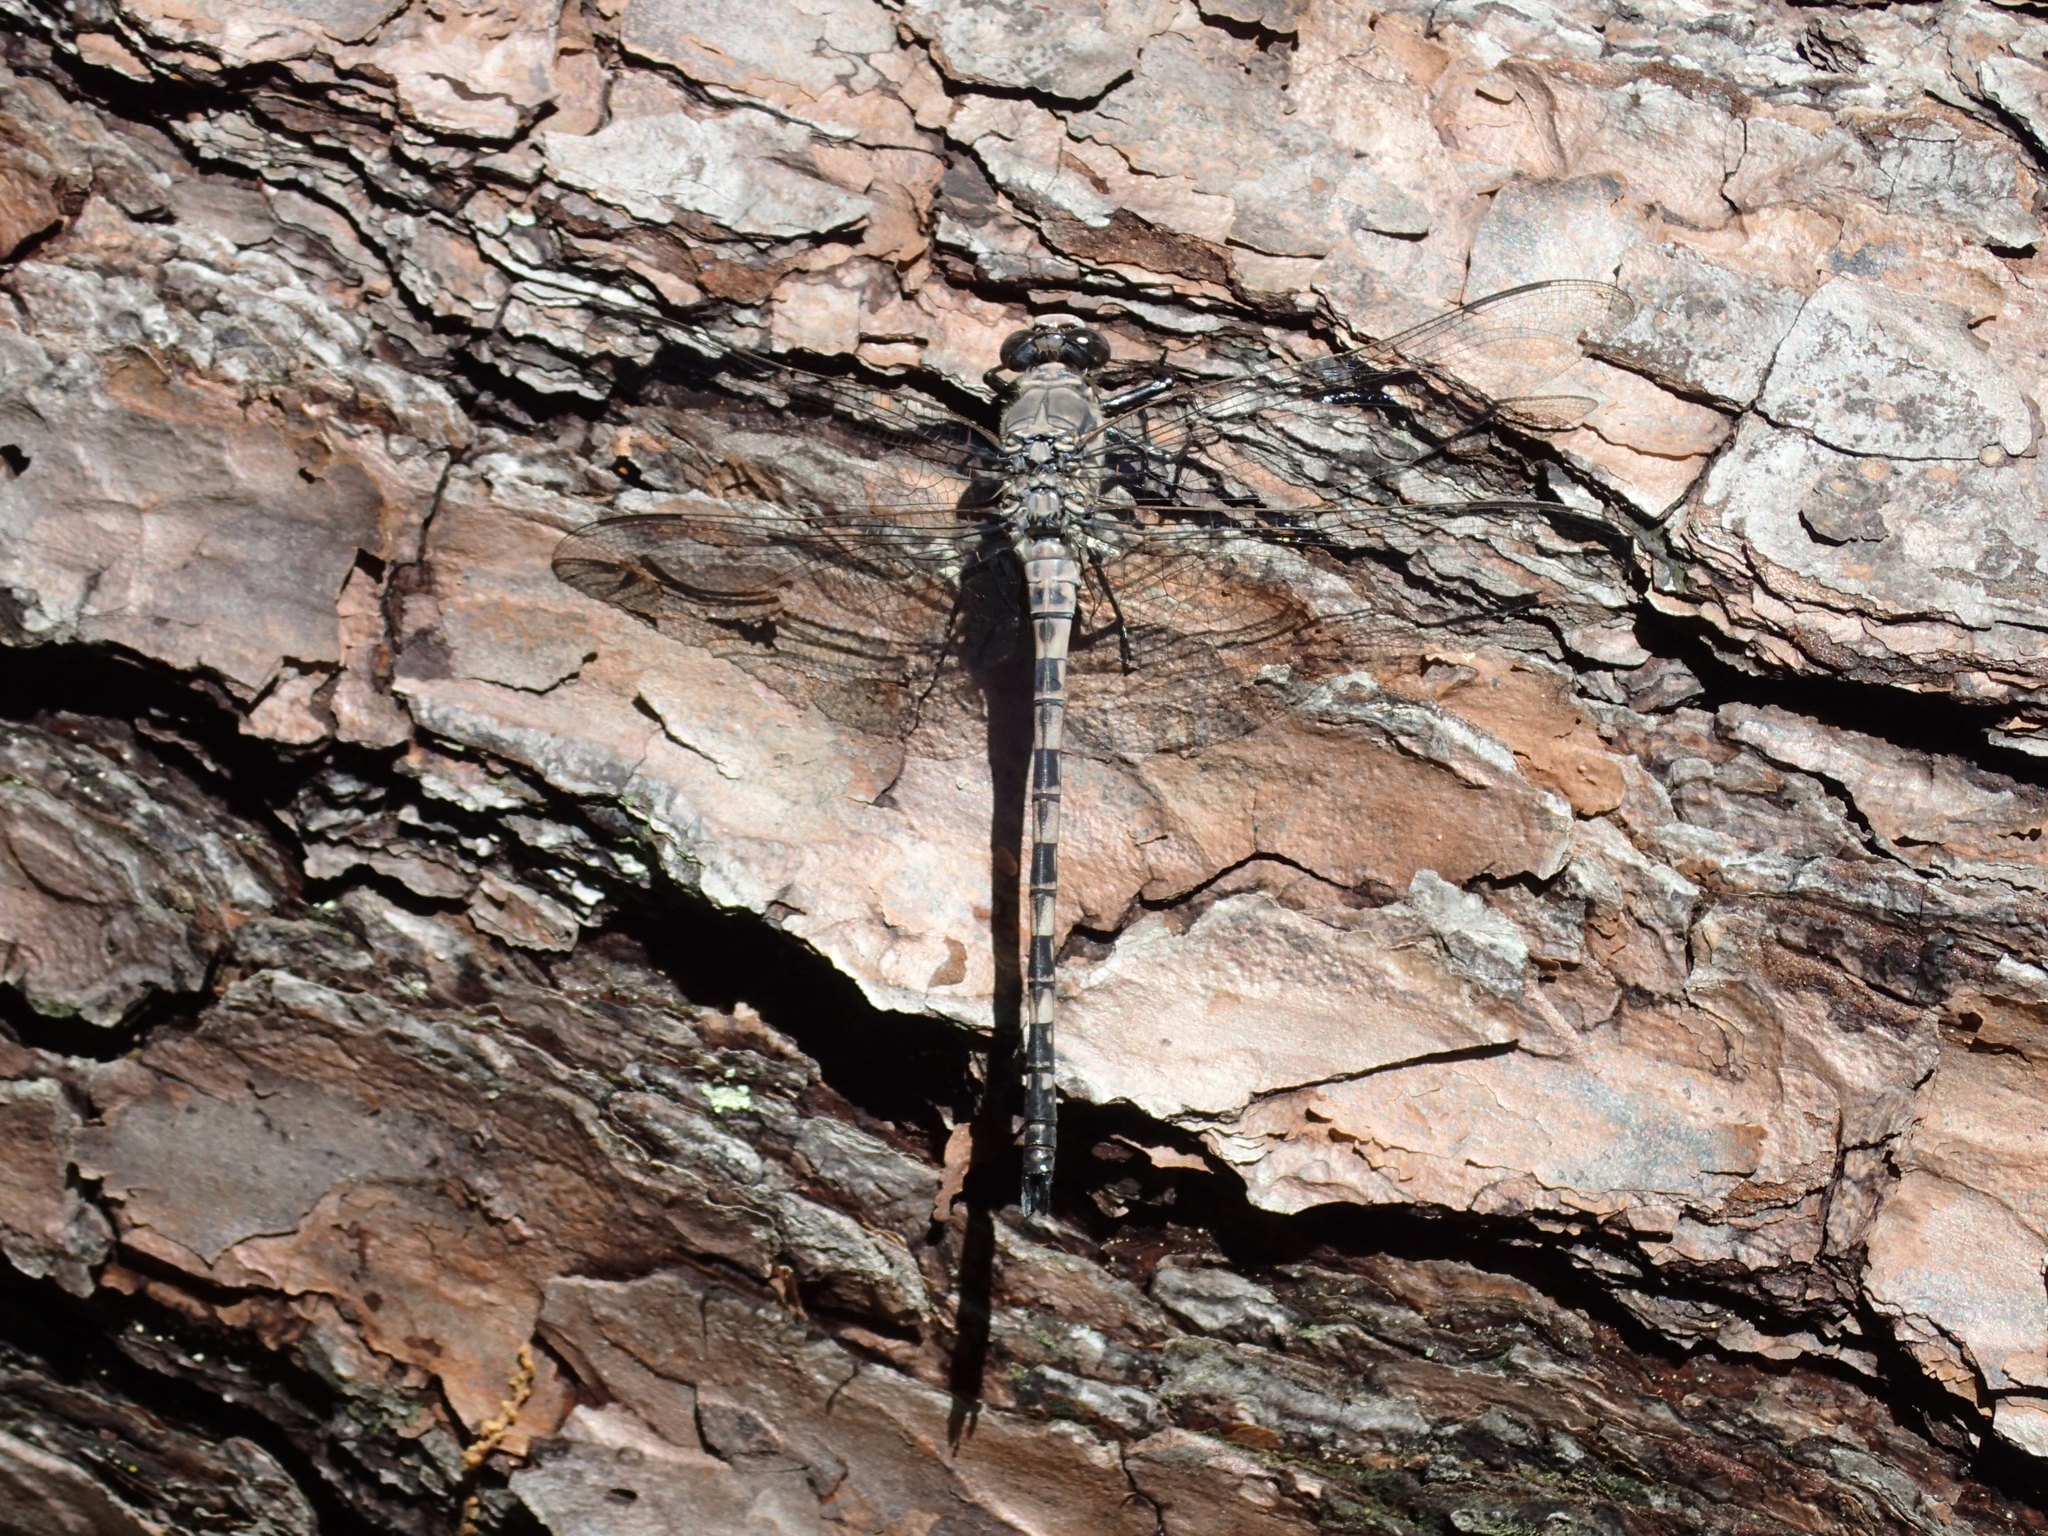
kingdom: Animalia
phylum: Arthropoda
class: Insecta
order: Odonata
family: Petaluridae
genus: Tachopteryx
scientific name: Tachopteryx thoreyi
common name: Gray petaltail
